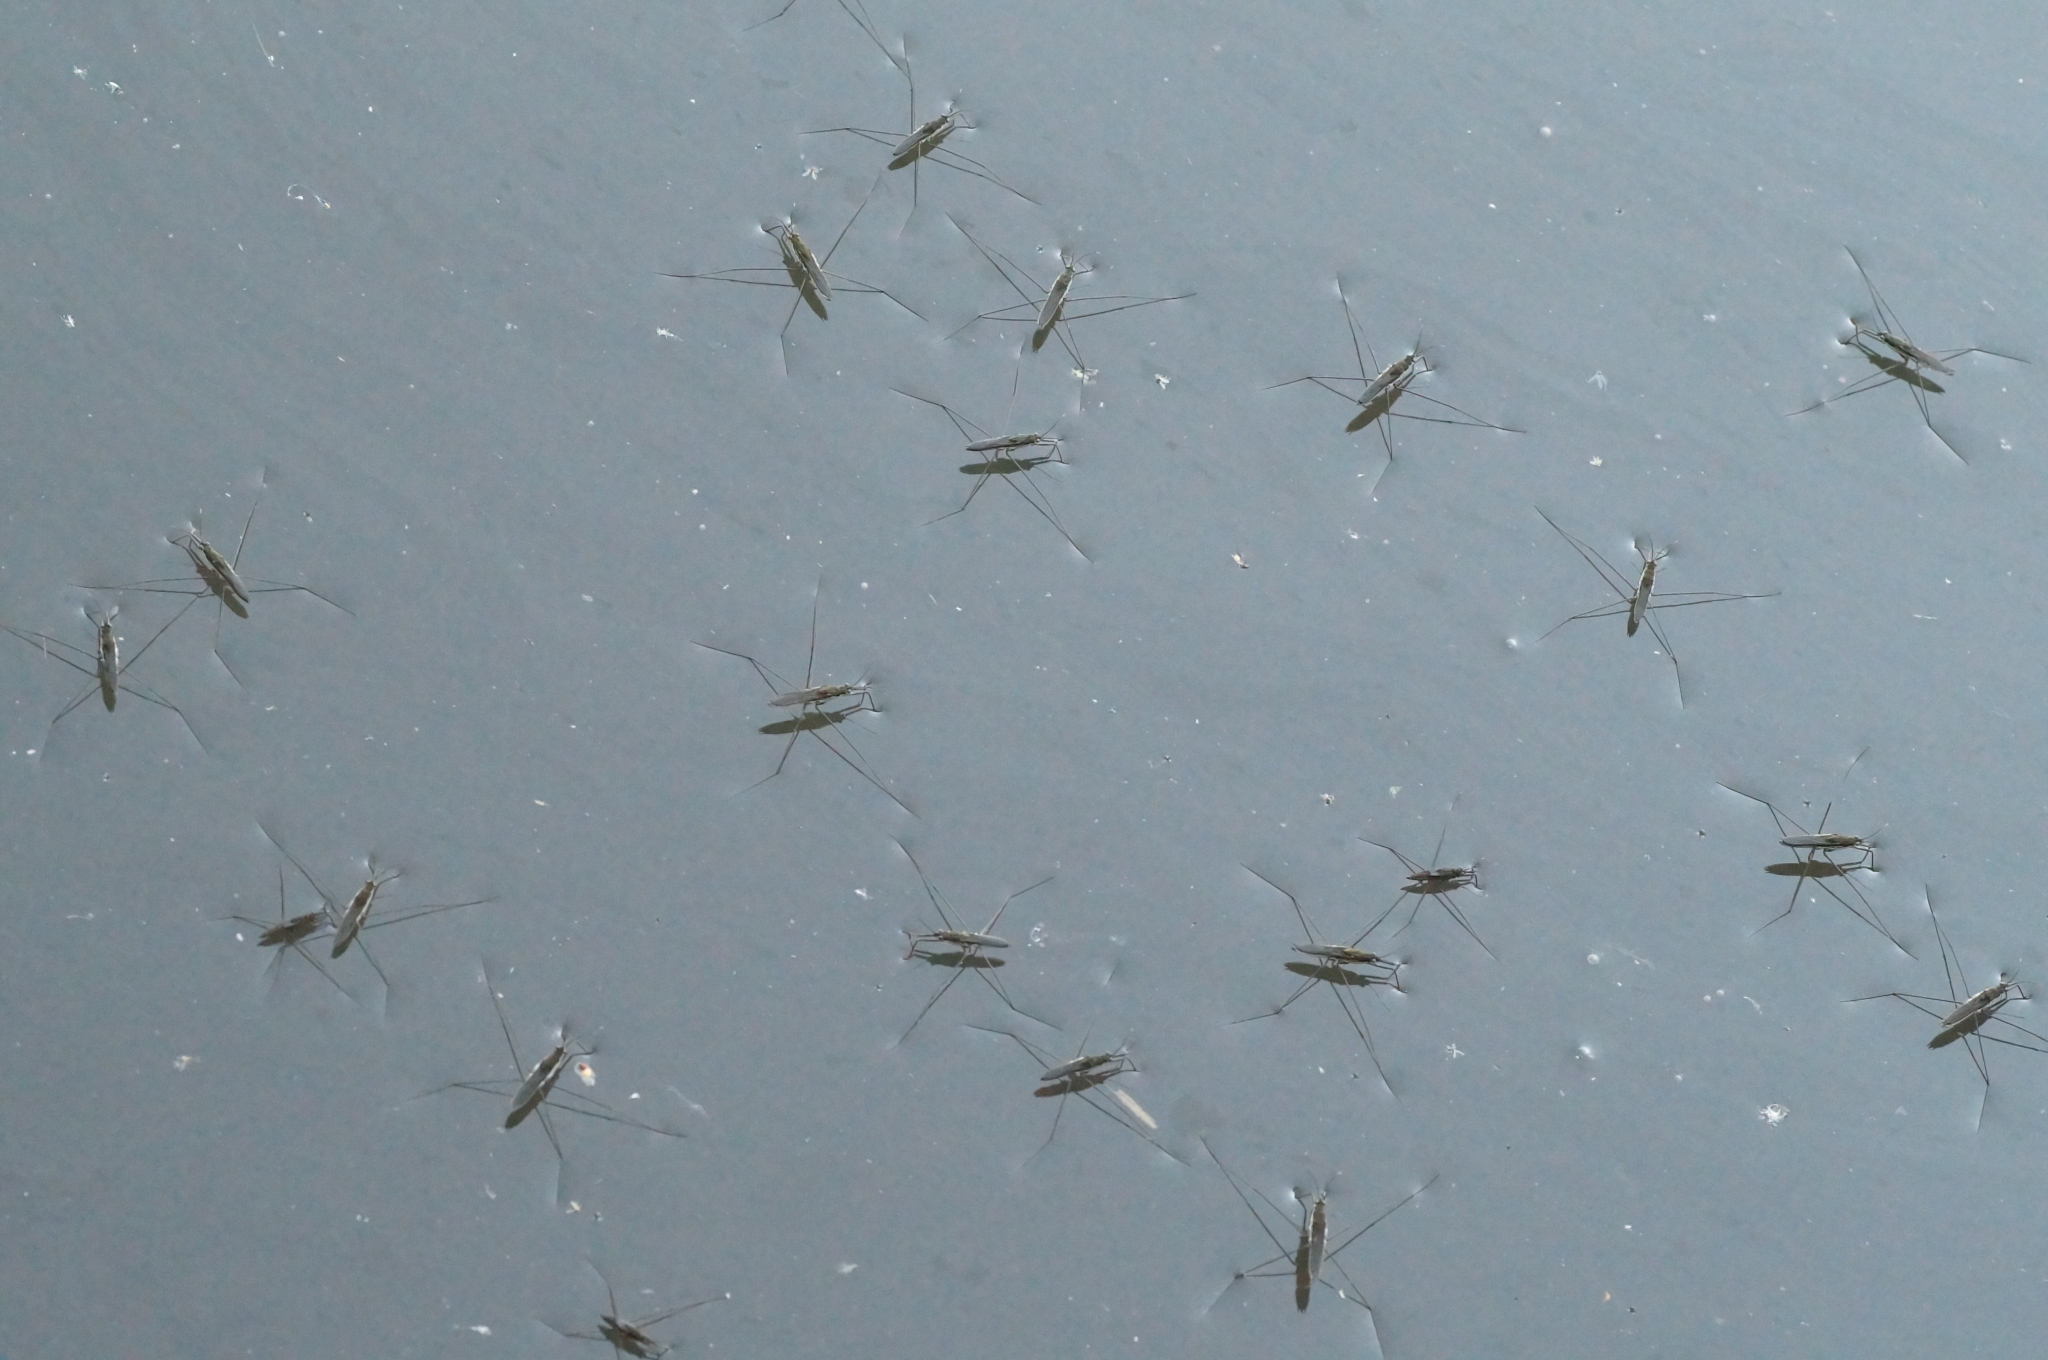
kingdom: Animalia
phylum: Arthropoda
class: Insecta
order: Hemiptera
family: Gerridae
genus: Aquarius
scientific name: Aquarius paludum
